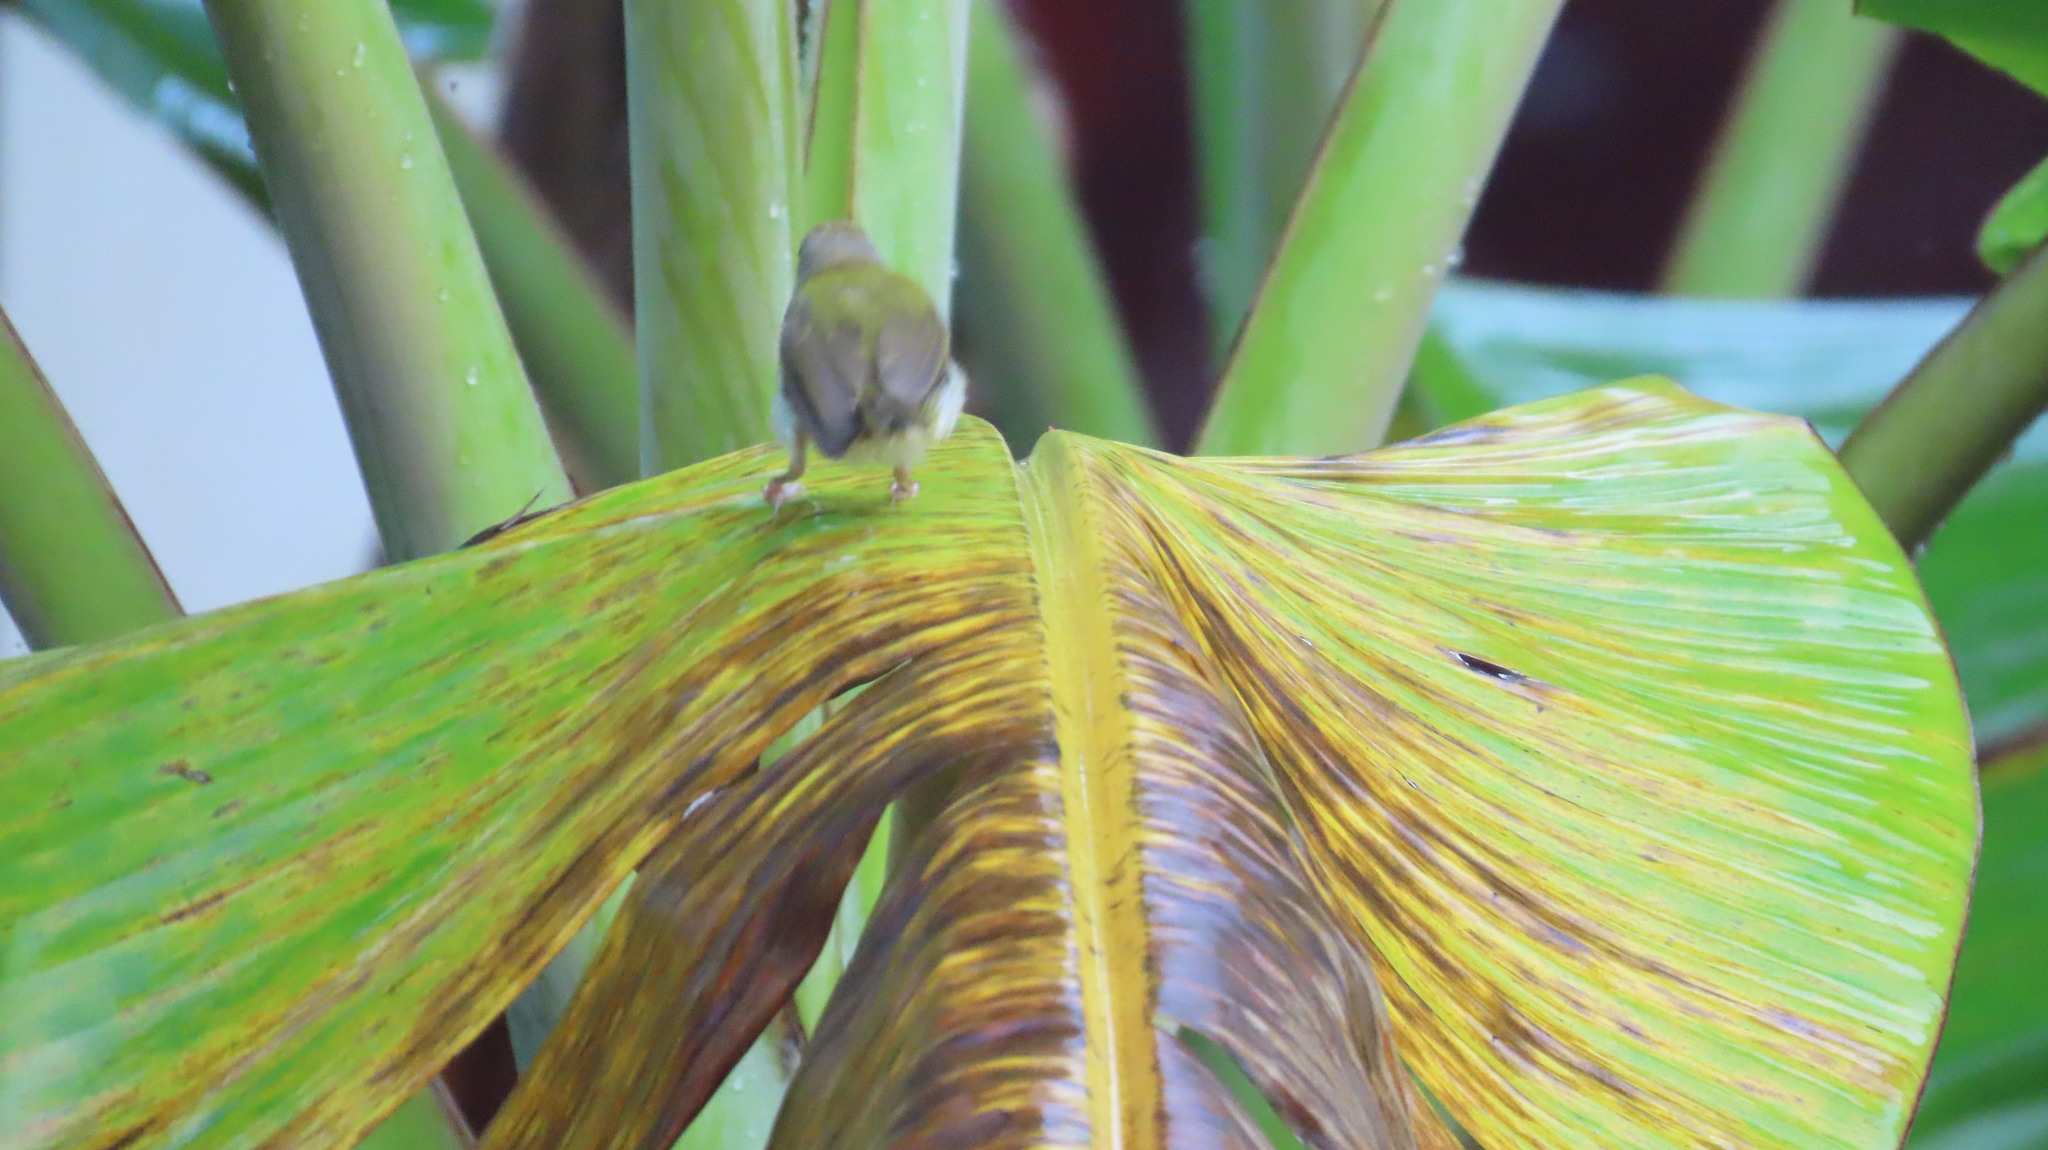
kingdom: Animalia
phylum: Chordata
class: Aves
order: Passeriformes
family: Cisticolidae
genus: Orthotomus
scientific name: Orthotomus sutorius
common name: Common tailorbird
